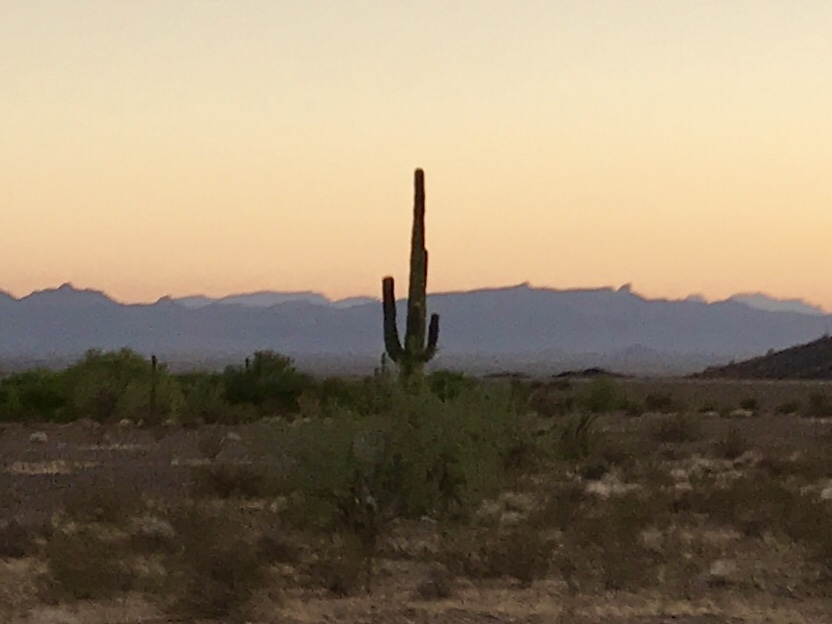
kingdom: Plantae
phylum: Tracheophyta
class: Magnoliopsida
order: Caryophyllales
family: Cactaceae
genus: Carnegiea
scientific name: Carnegiea gigantea
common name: Saguaro
